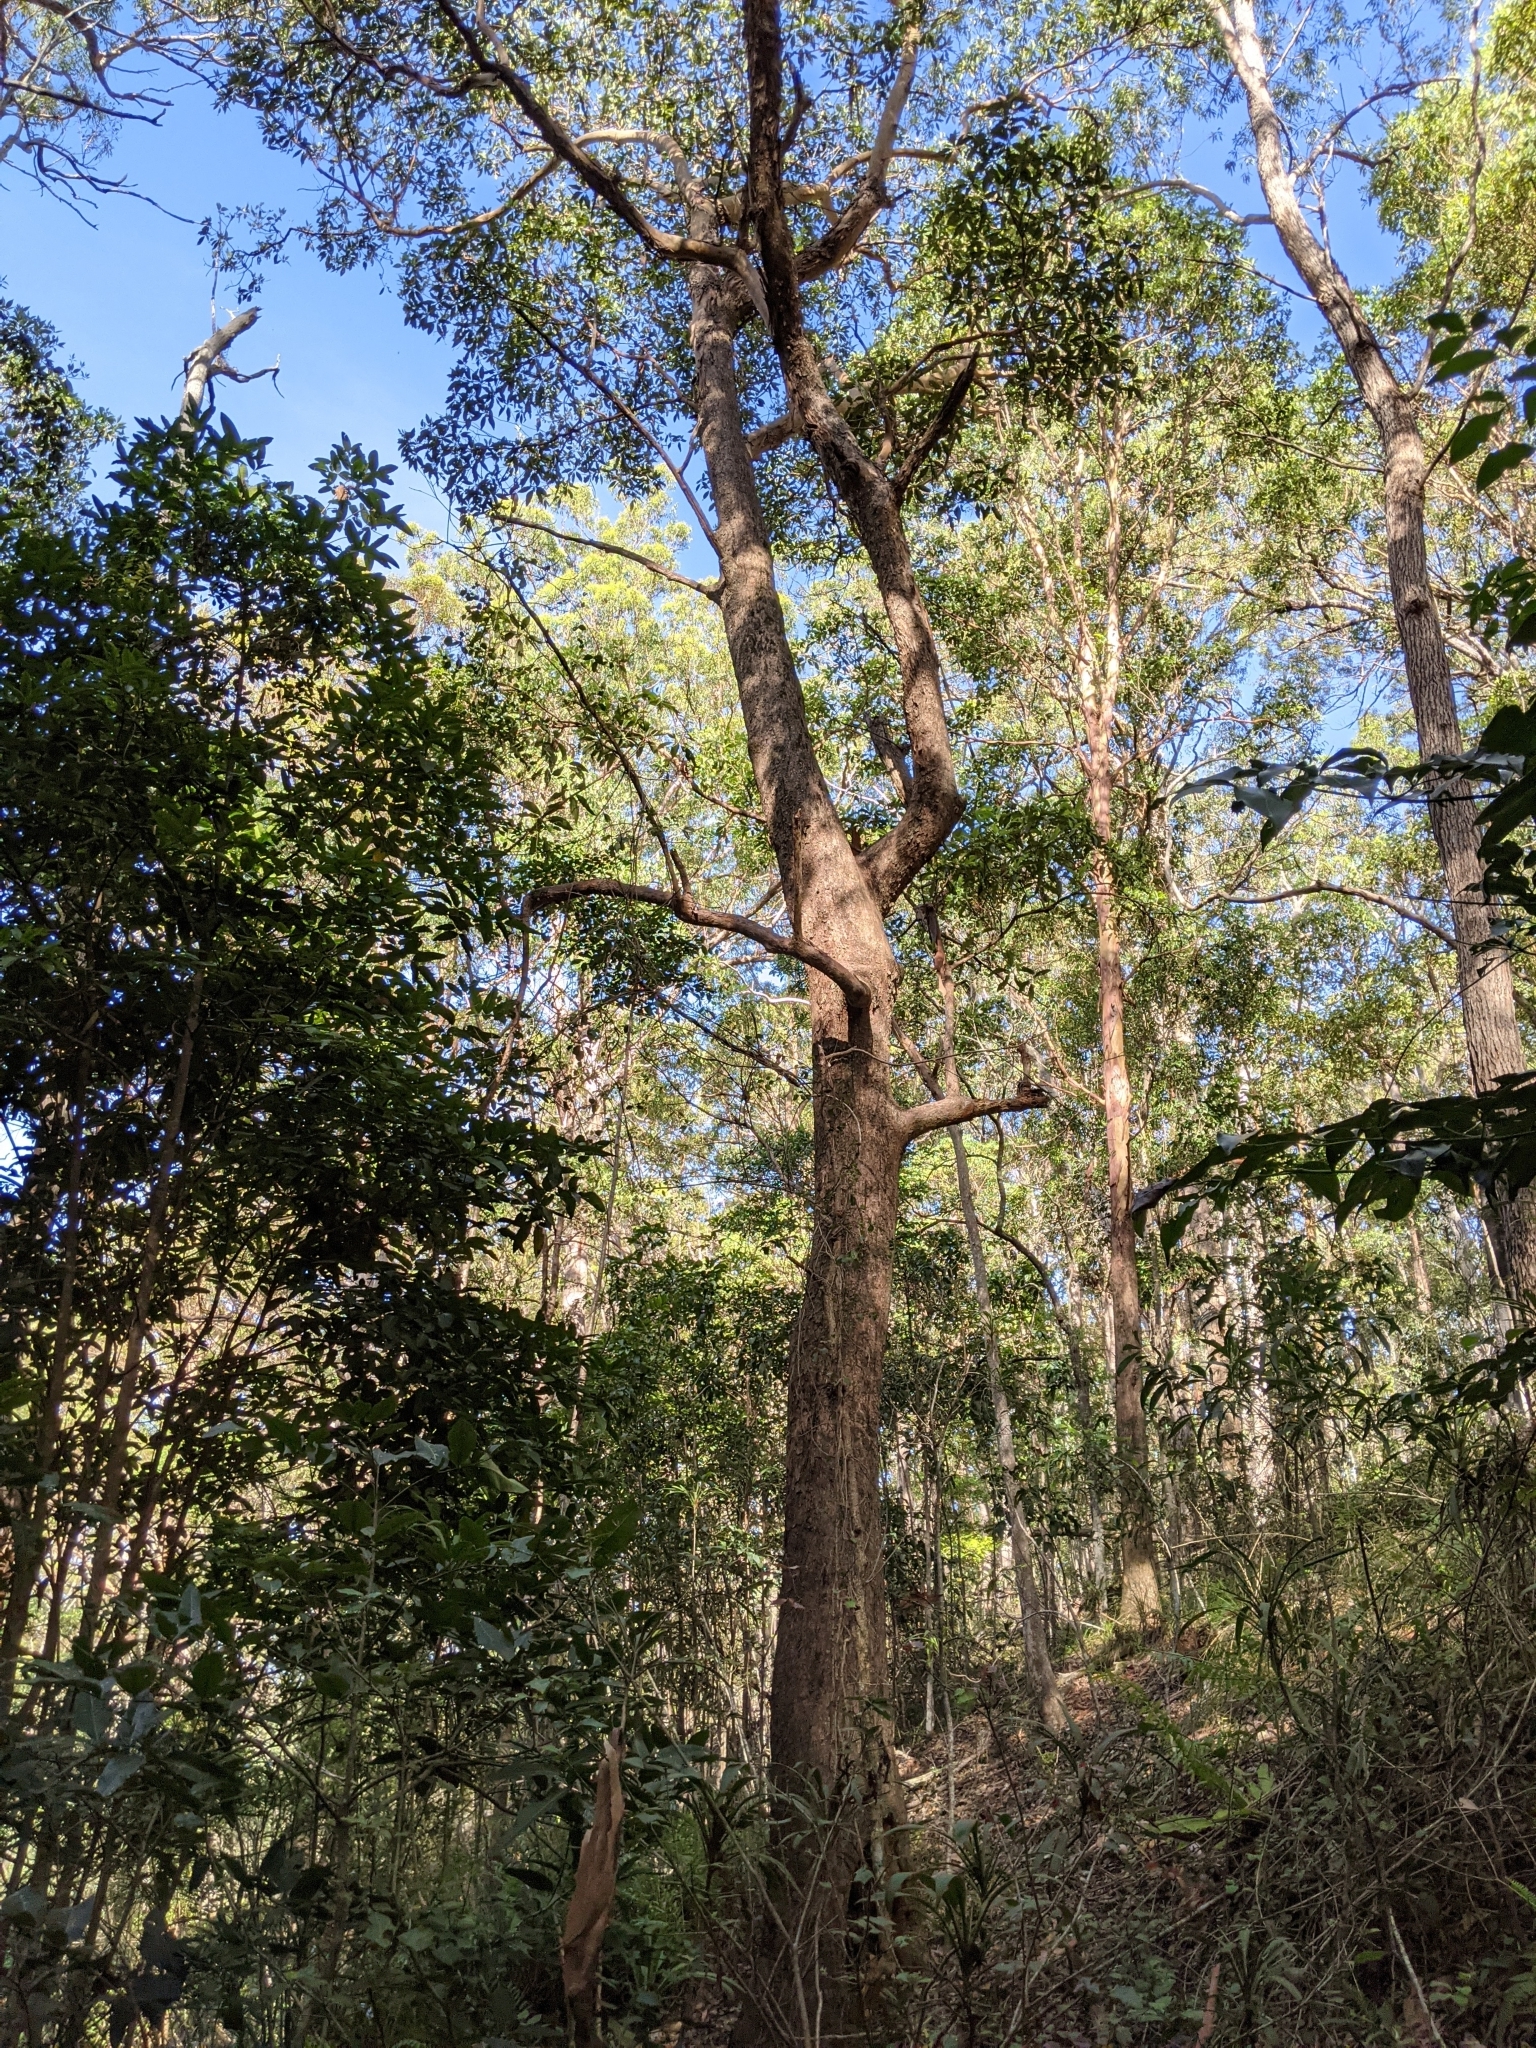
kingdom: Plantae
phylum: Tracheophyta
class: Magnoliopsida
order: Myrtales
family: Myrtaceae
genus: Lophostemon
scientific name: Lophostemon confertus
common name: Brisbane box
